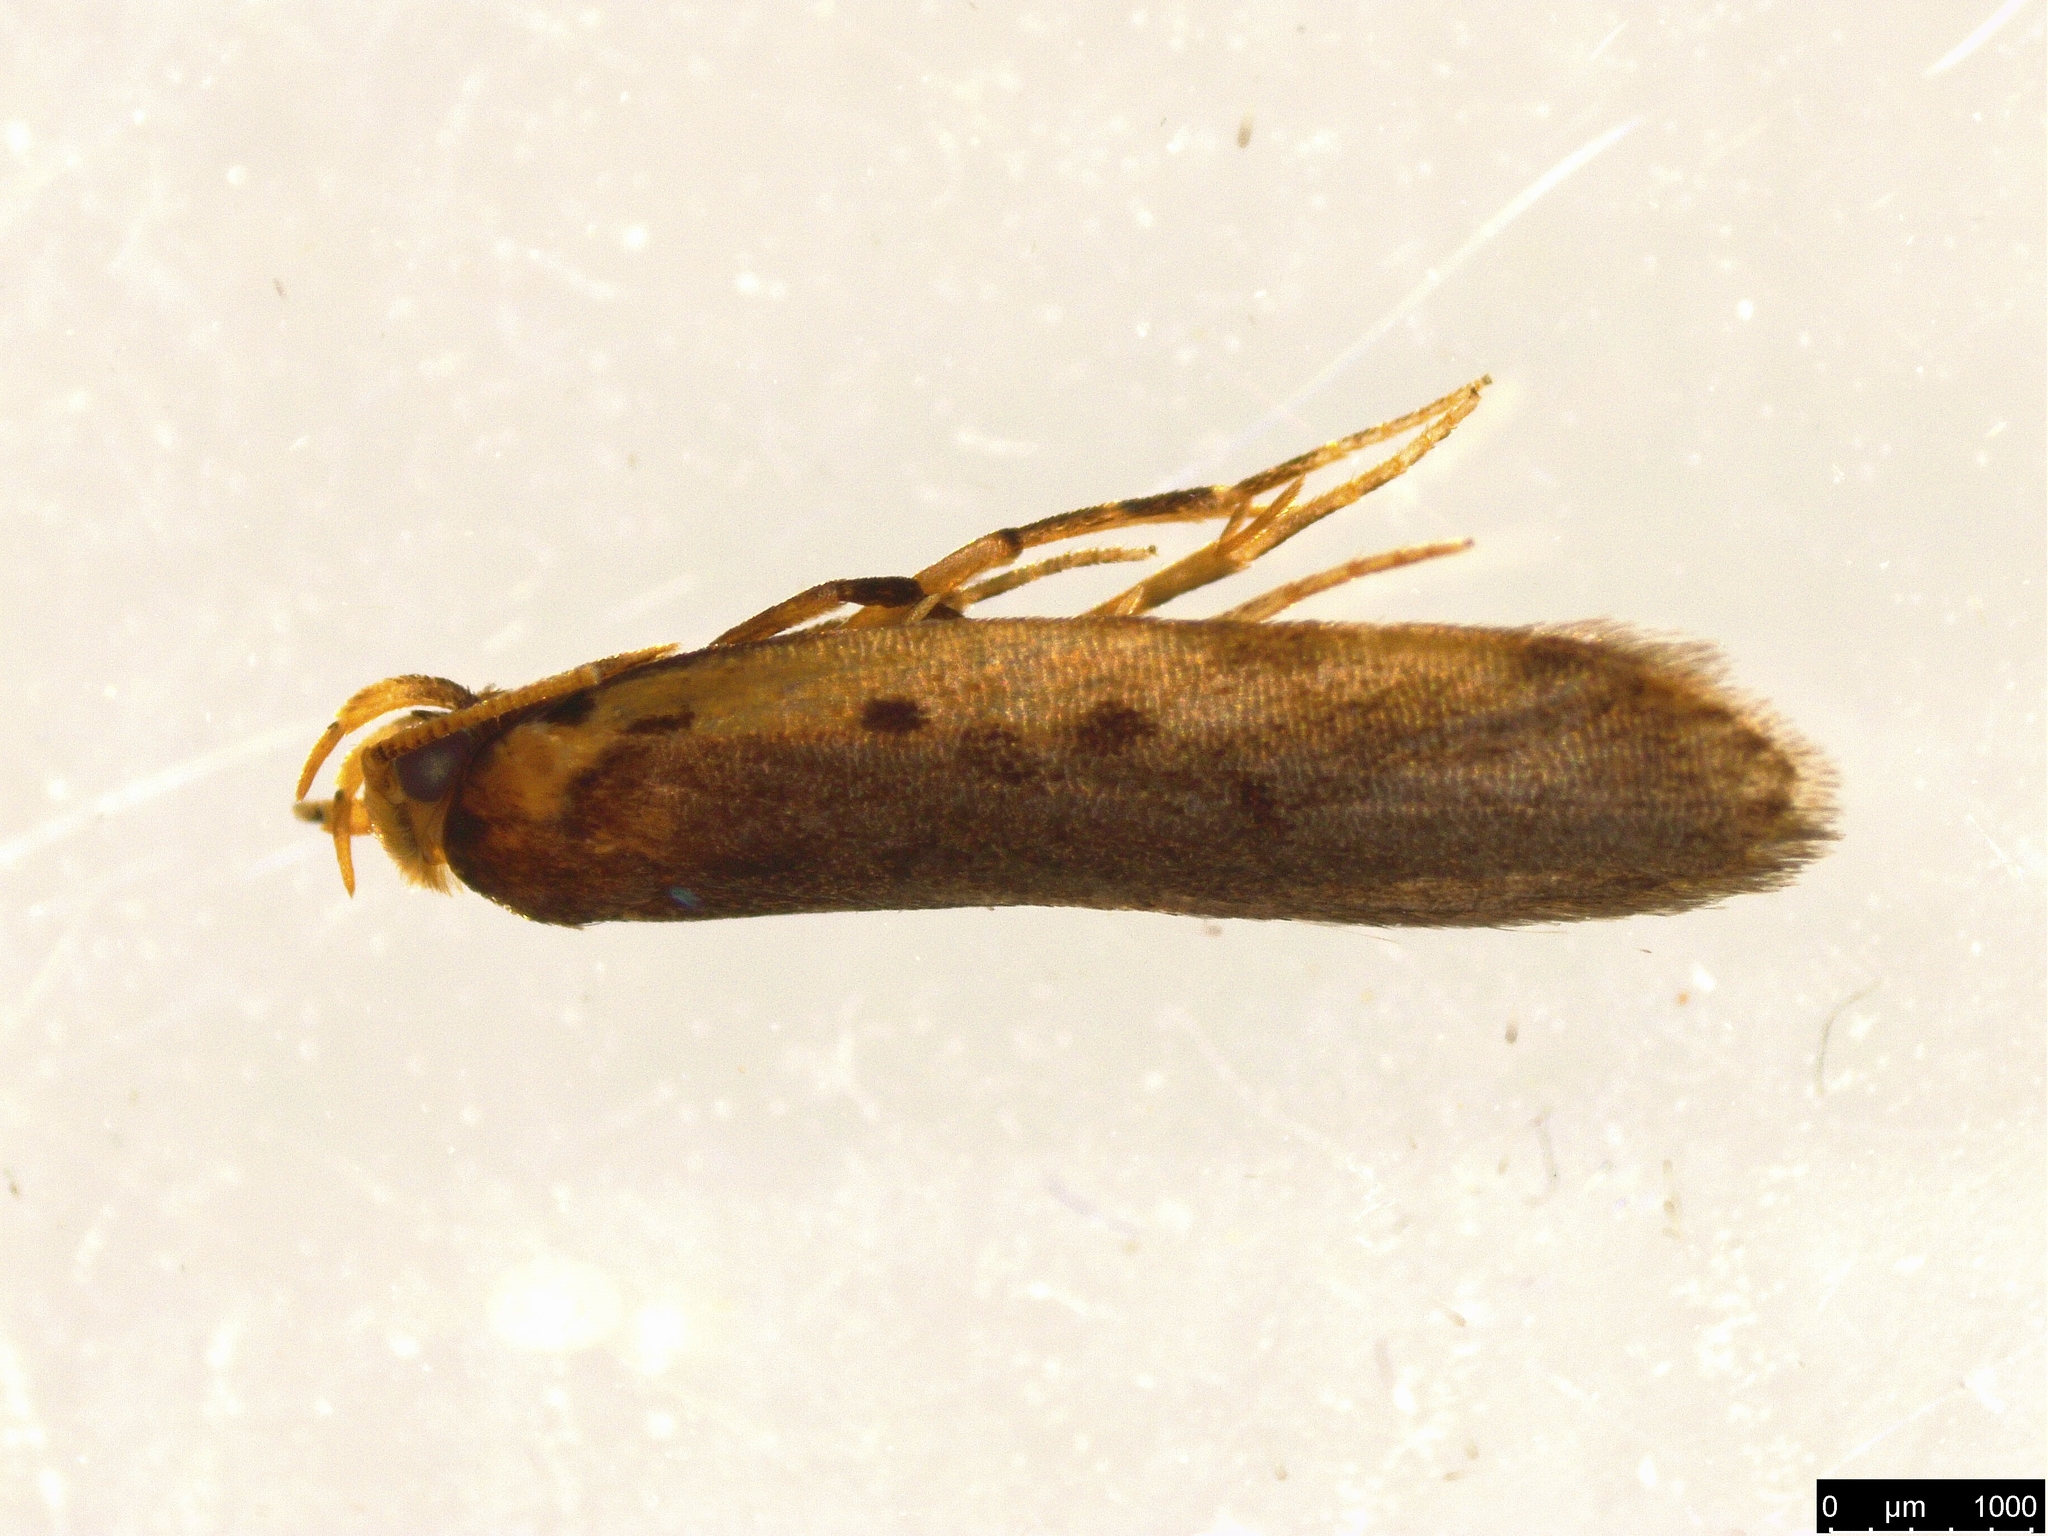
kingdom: Animalia
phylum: Arthropoda
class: Insecta
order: Lepidoptera
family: Oecophoridae
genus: Hoplostega
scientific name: Hoplostega ochroma
